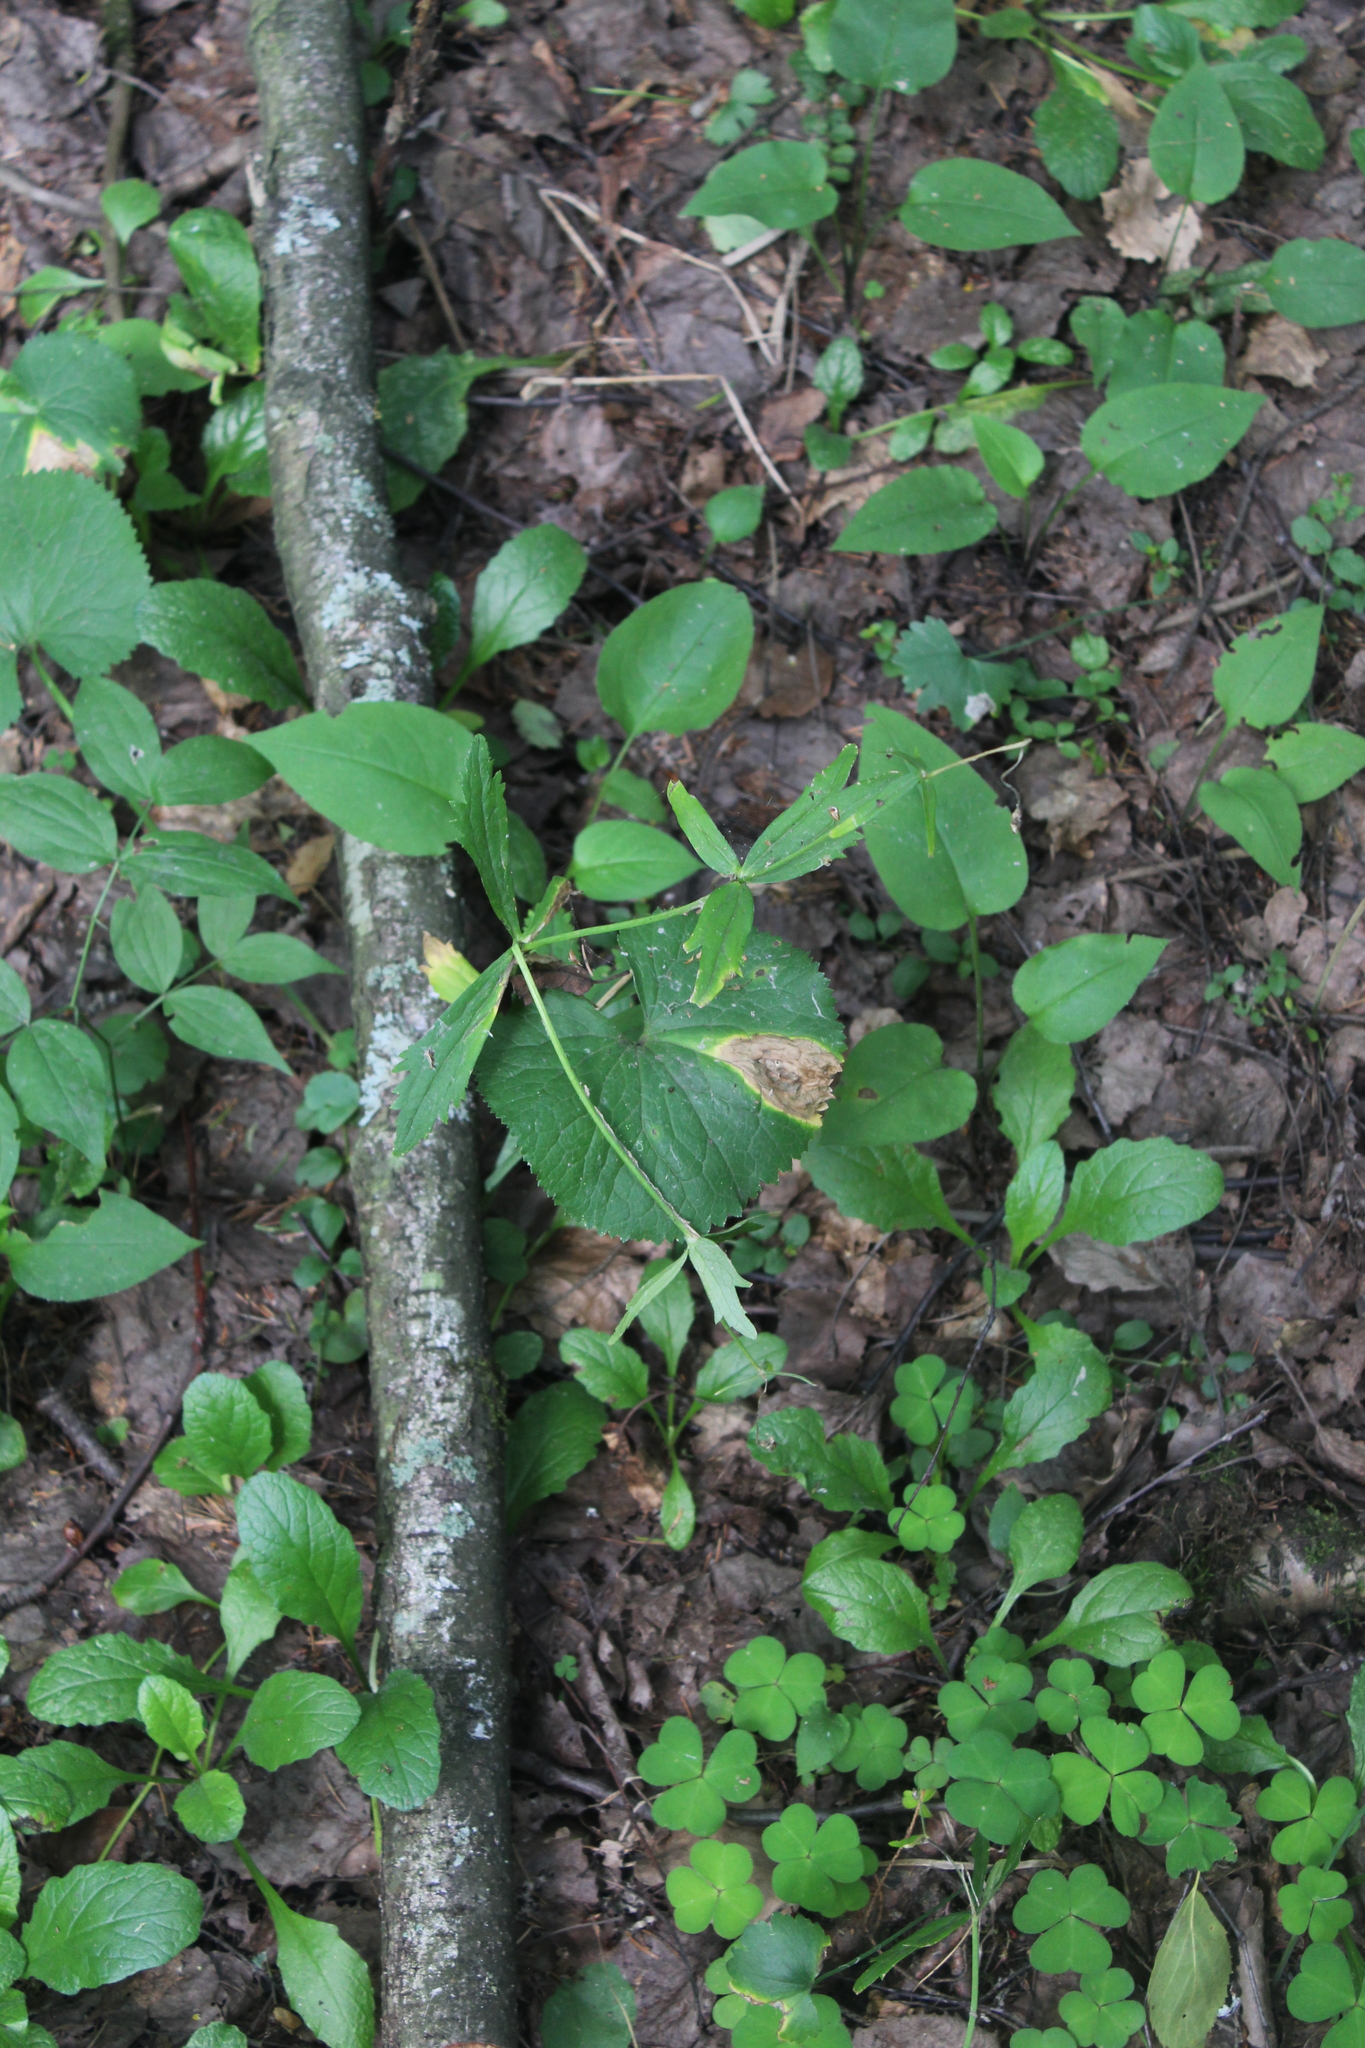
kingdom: Plantae
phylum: Tracheophyta
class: Magnoliopsida
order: Ranunculales
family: Ranunculaceae
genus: Ranunculus
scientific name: Ranunculus cassubicus
